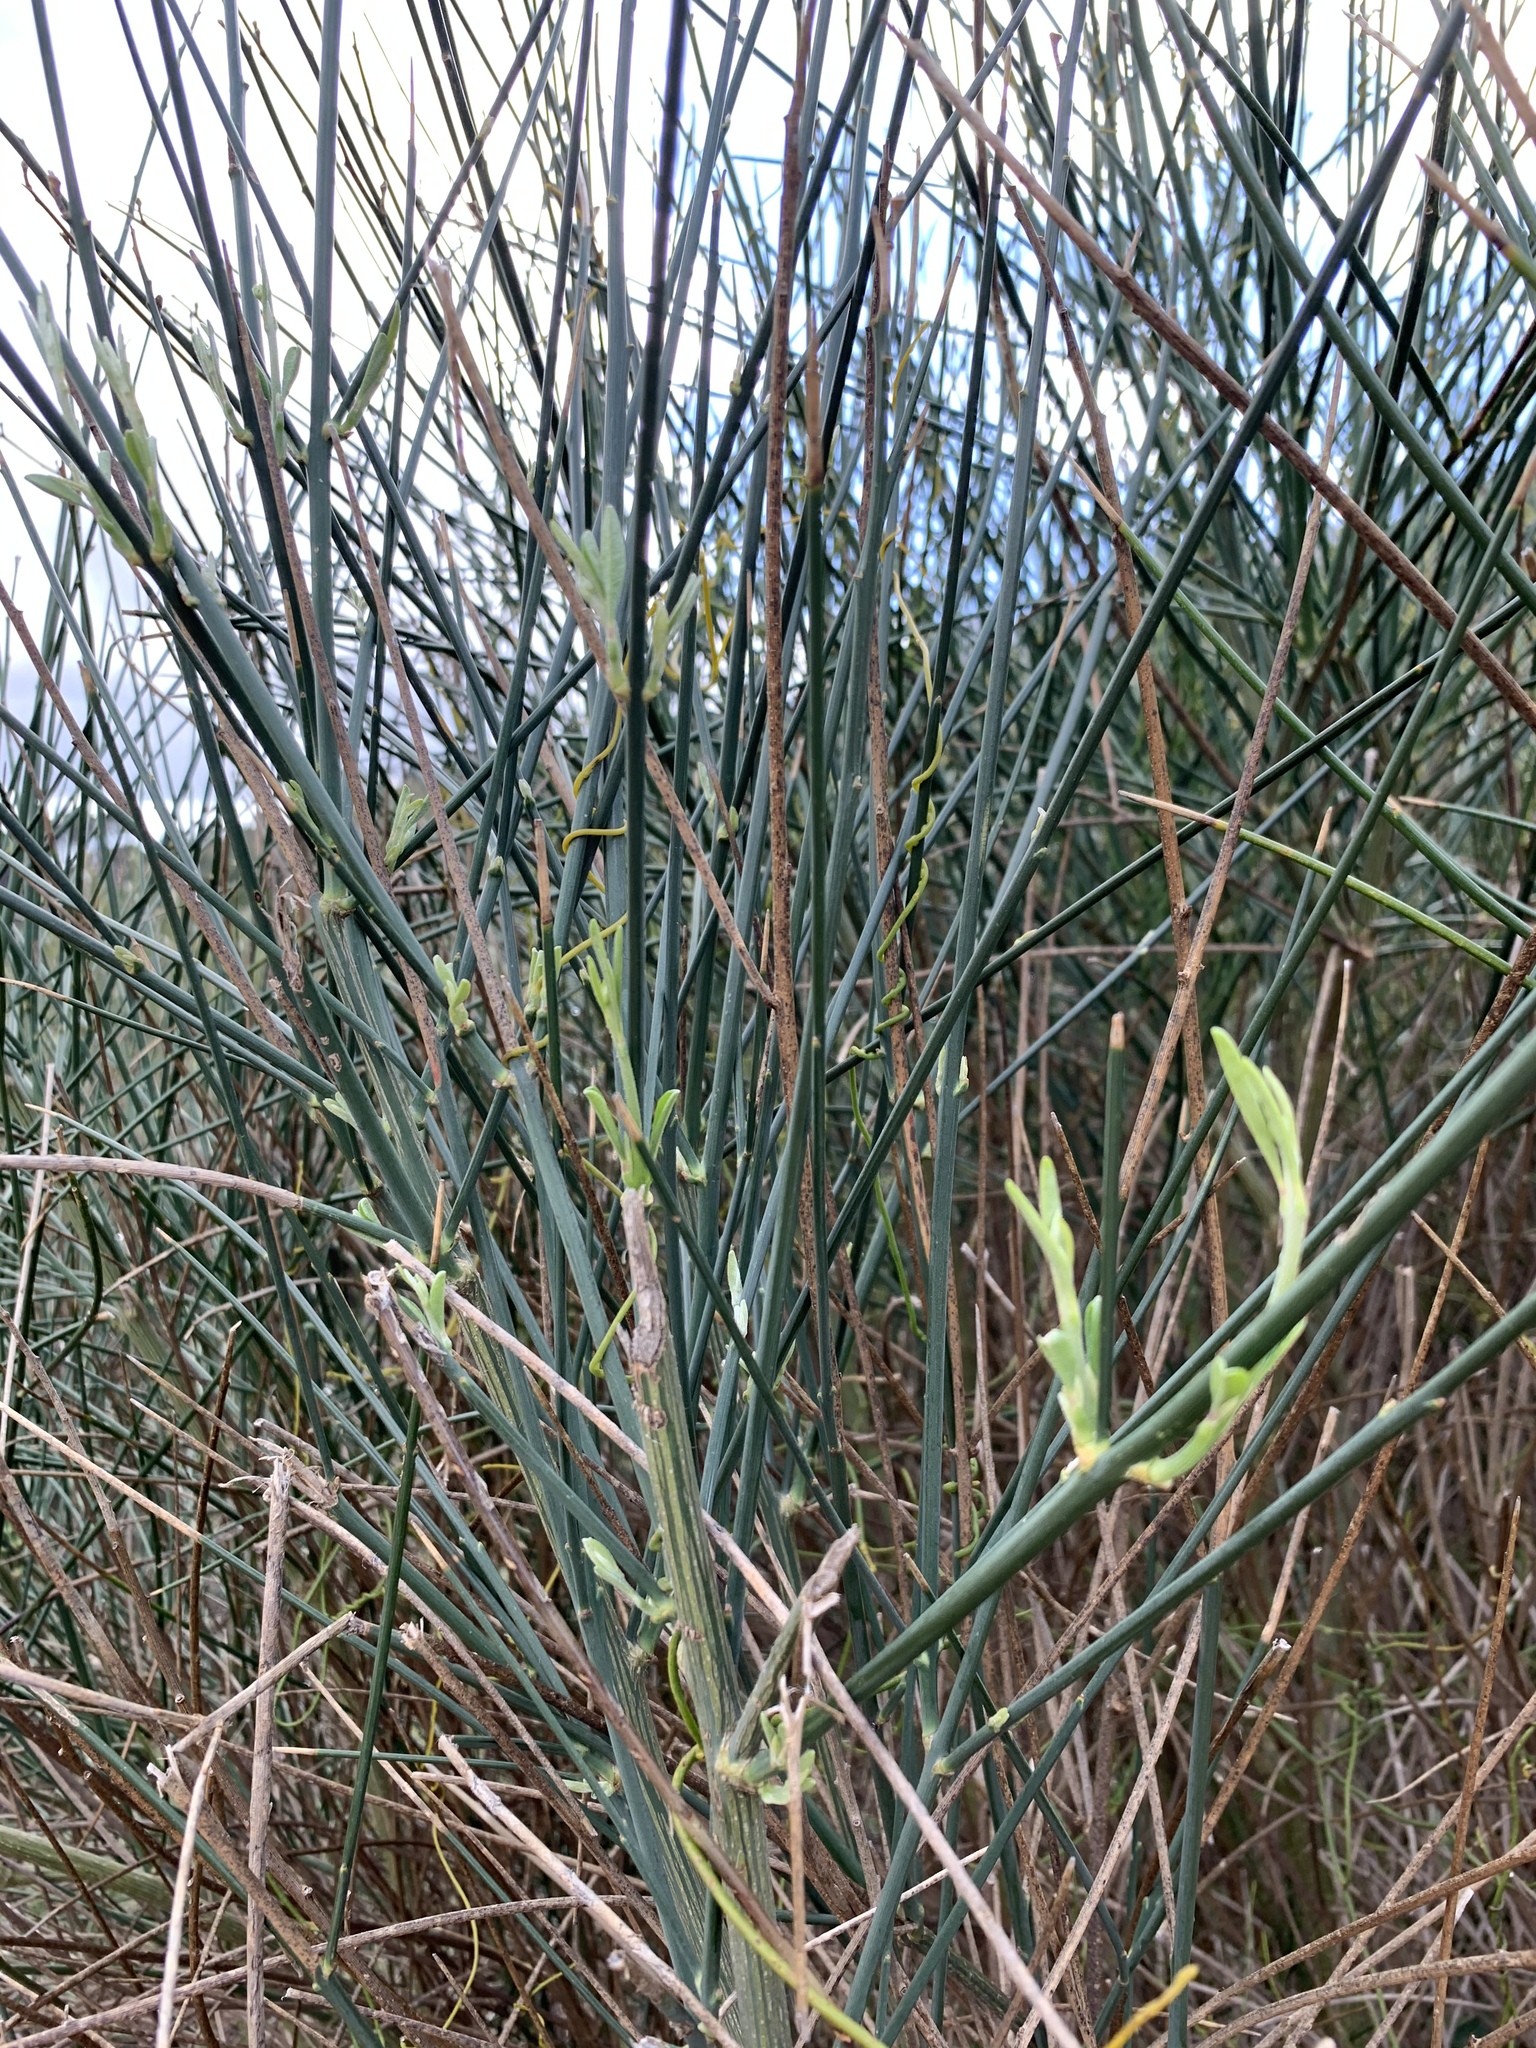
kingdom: Plantae
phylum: Tracheophyta
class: Magnoliopsida
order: Fabales
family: Fabaceae
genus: Spartium
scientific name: Spartium junceum
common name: Spanish broom
